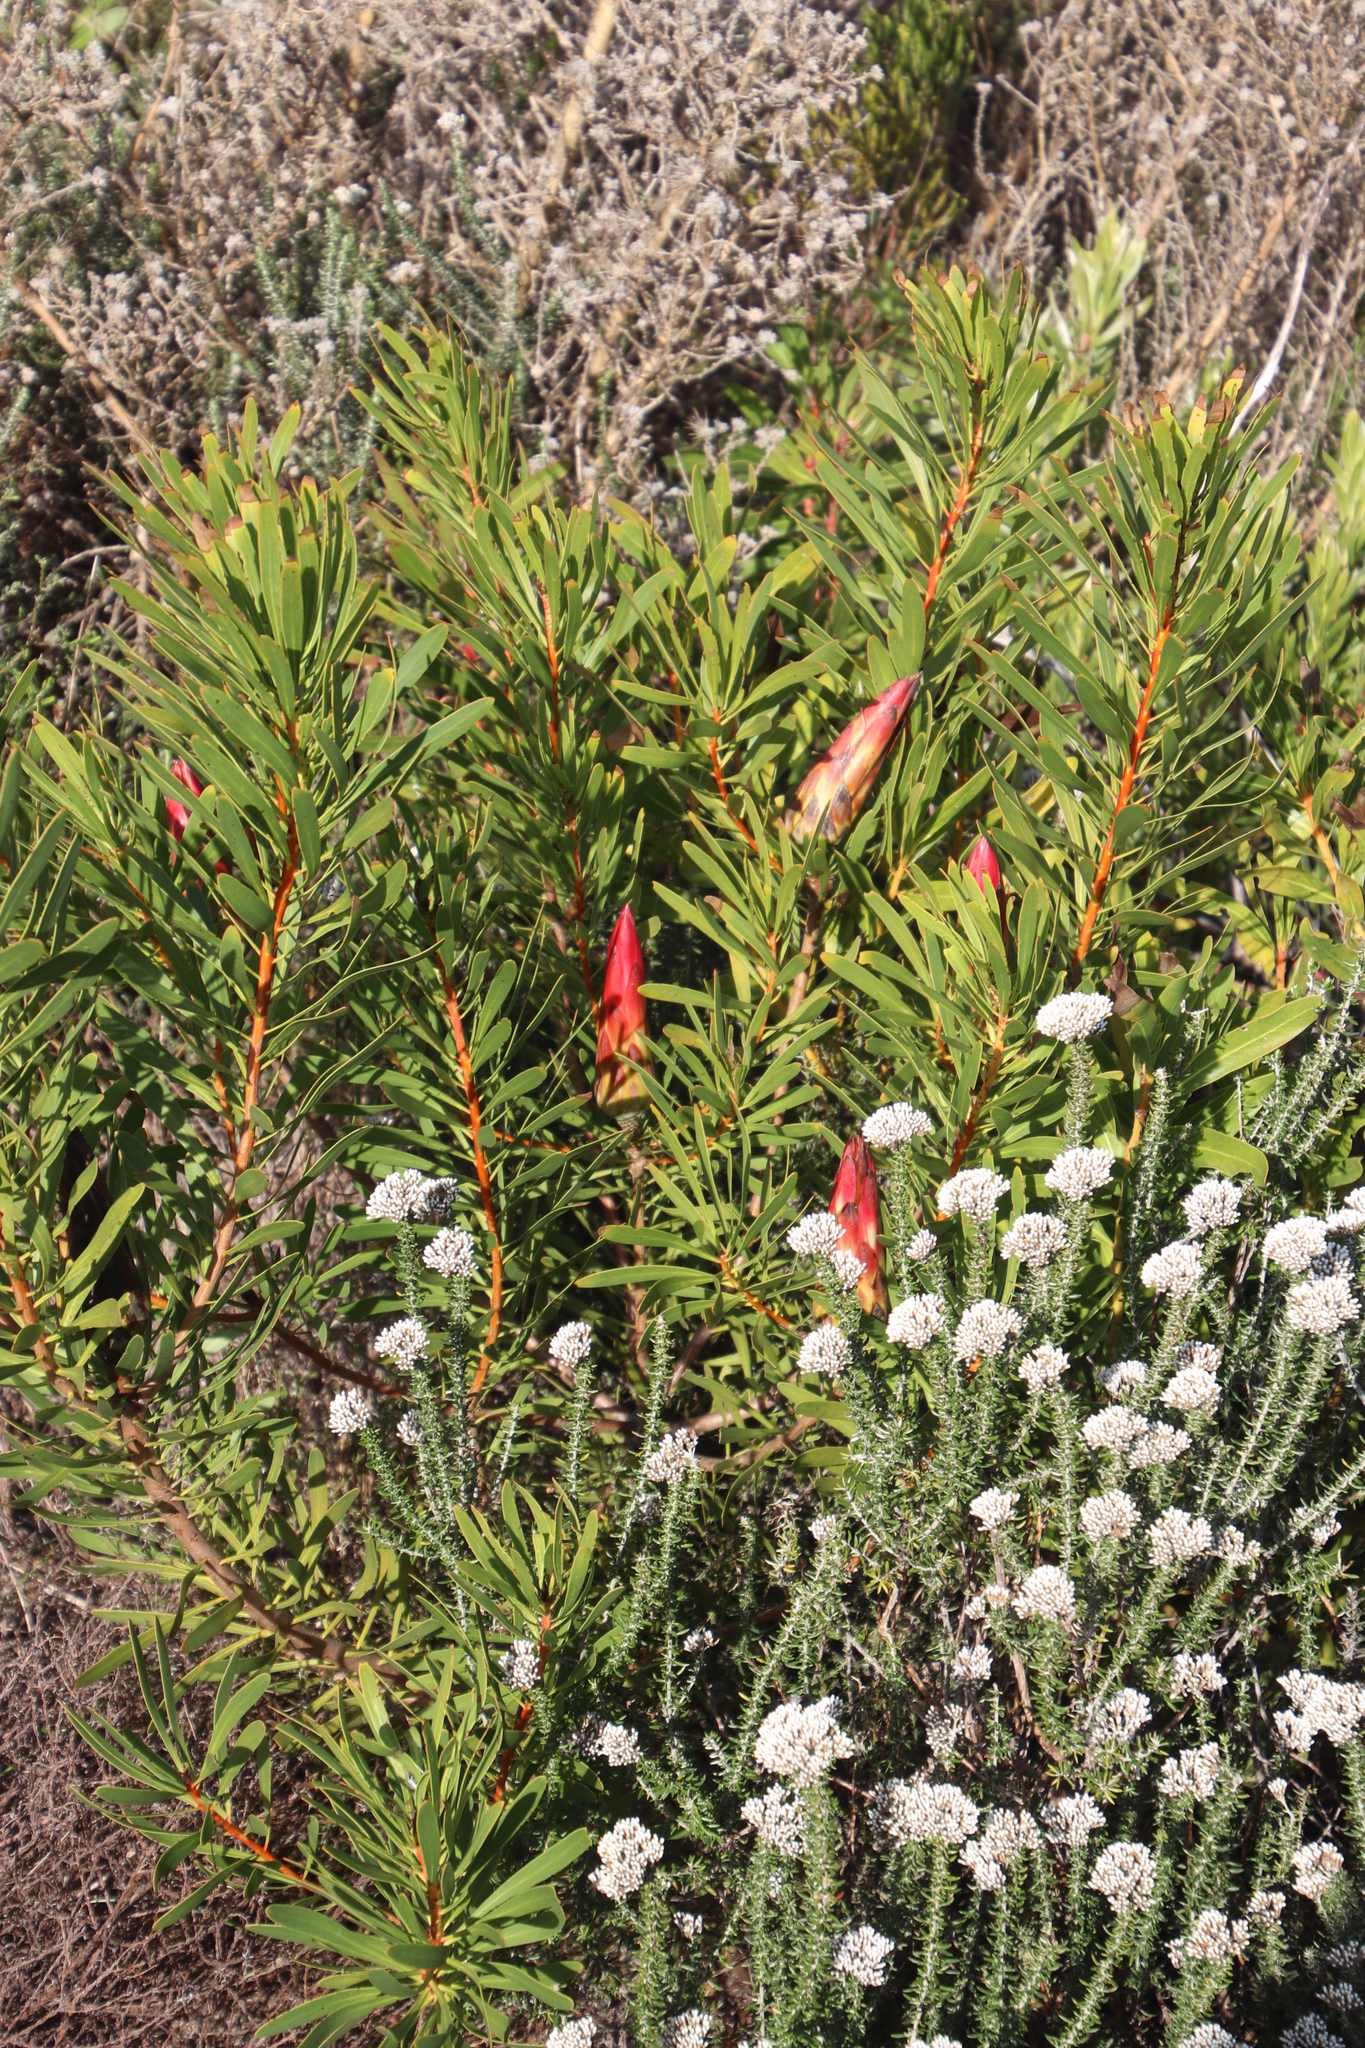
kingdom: Plantae
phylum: Tracheophyta
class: Magnoliopsida
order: Proteales
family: Proteaceae
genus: Protea
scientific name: Protea repens
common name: Sugarbush
